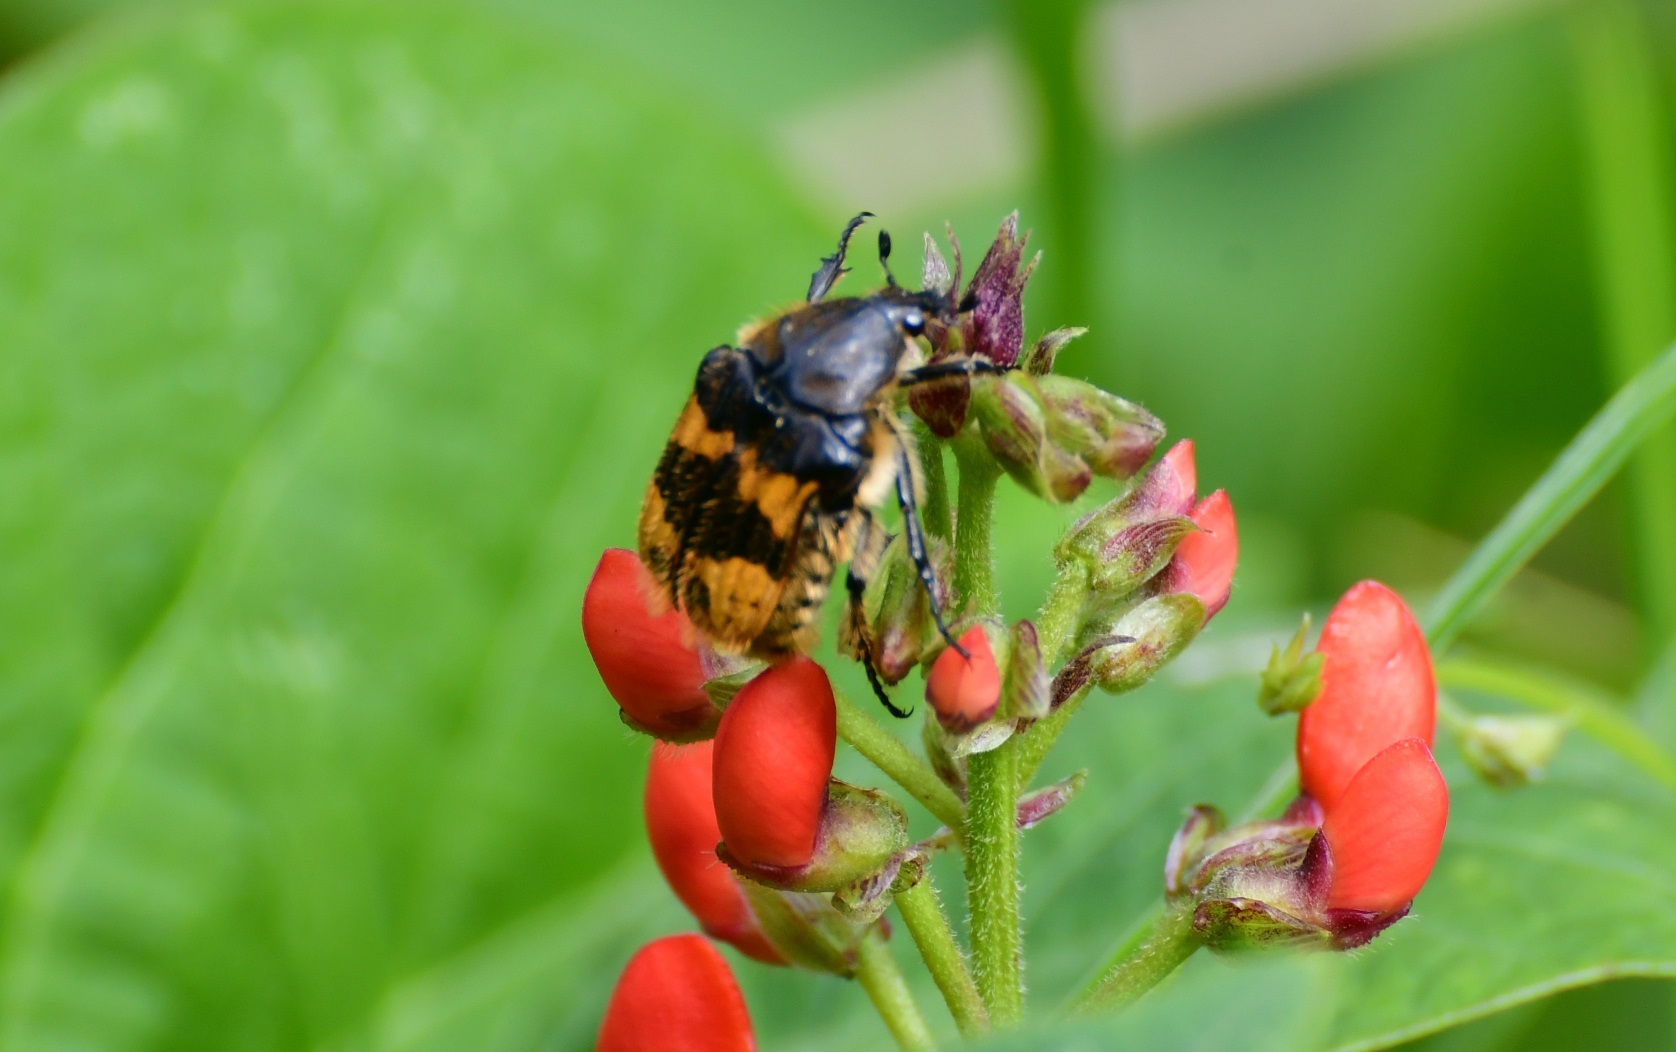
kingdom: Animalia
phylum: Arthropoda
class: Insecta
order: Coleoptera
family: Scarabaeidae
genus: Euphoria
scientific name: Euphoria basalis
